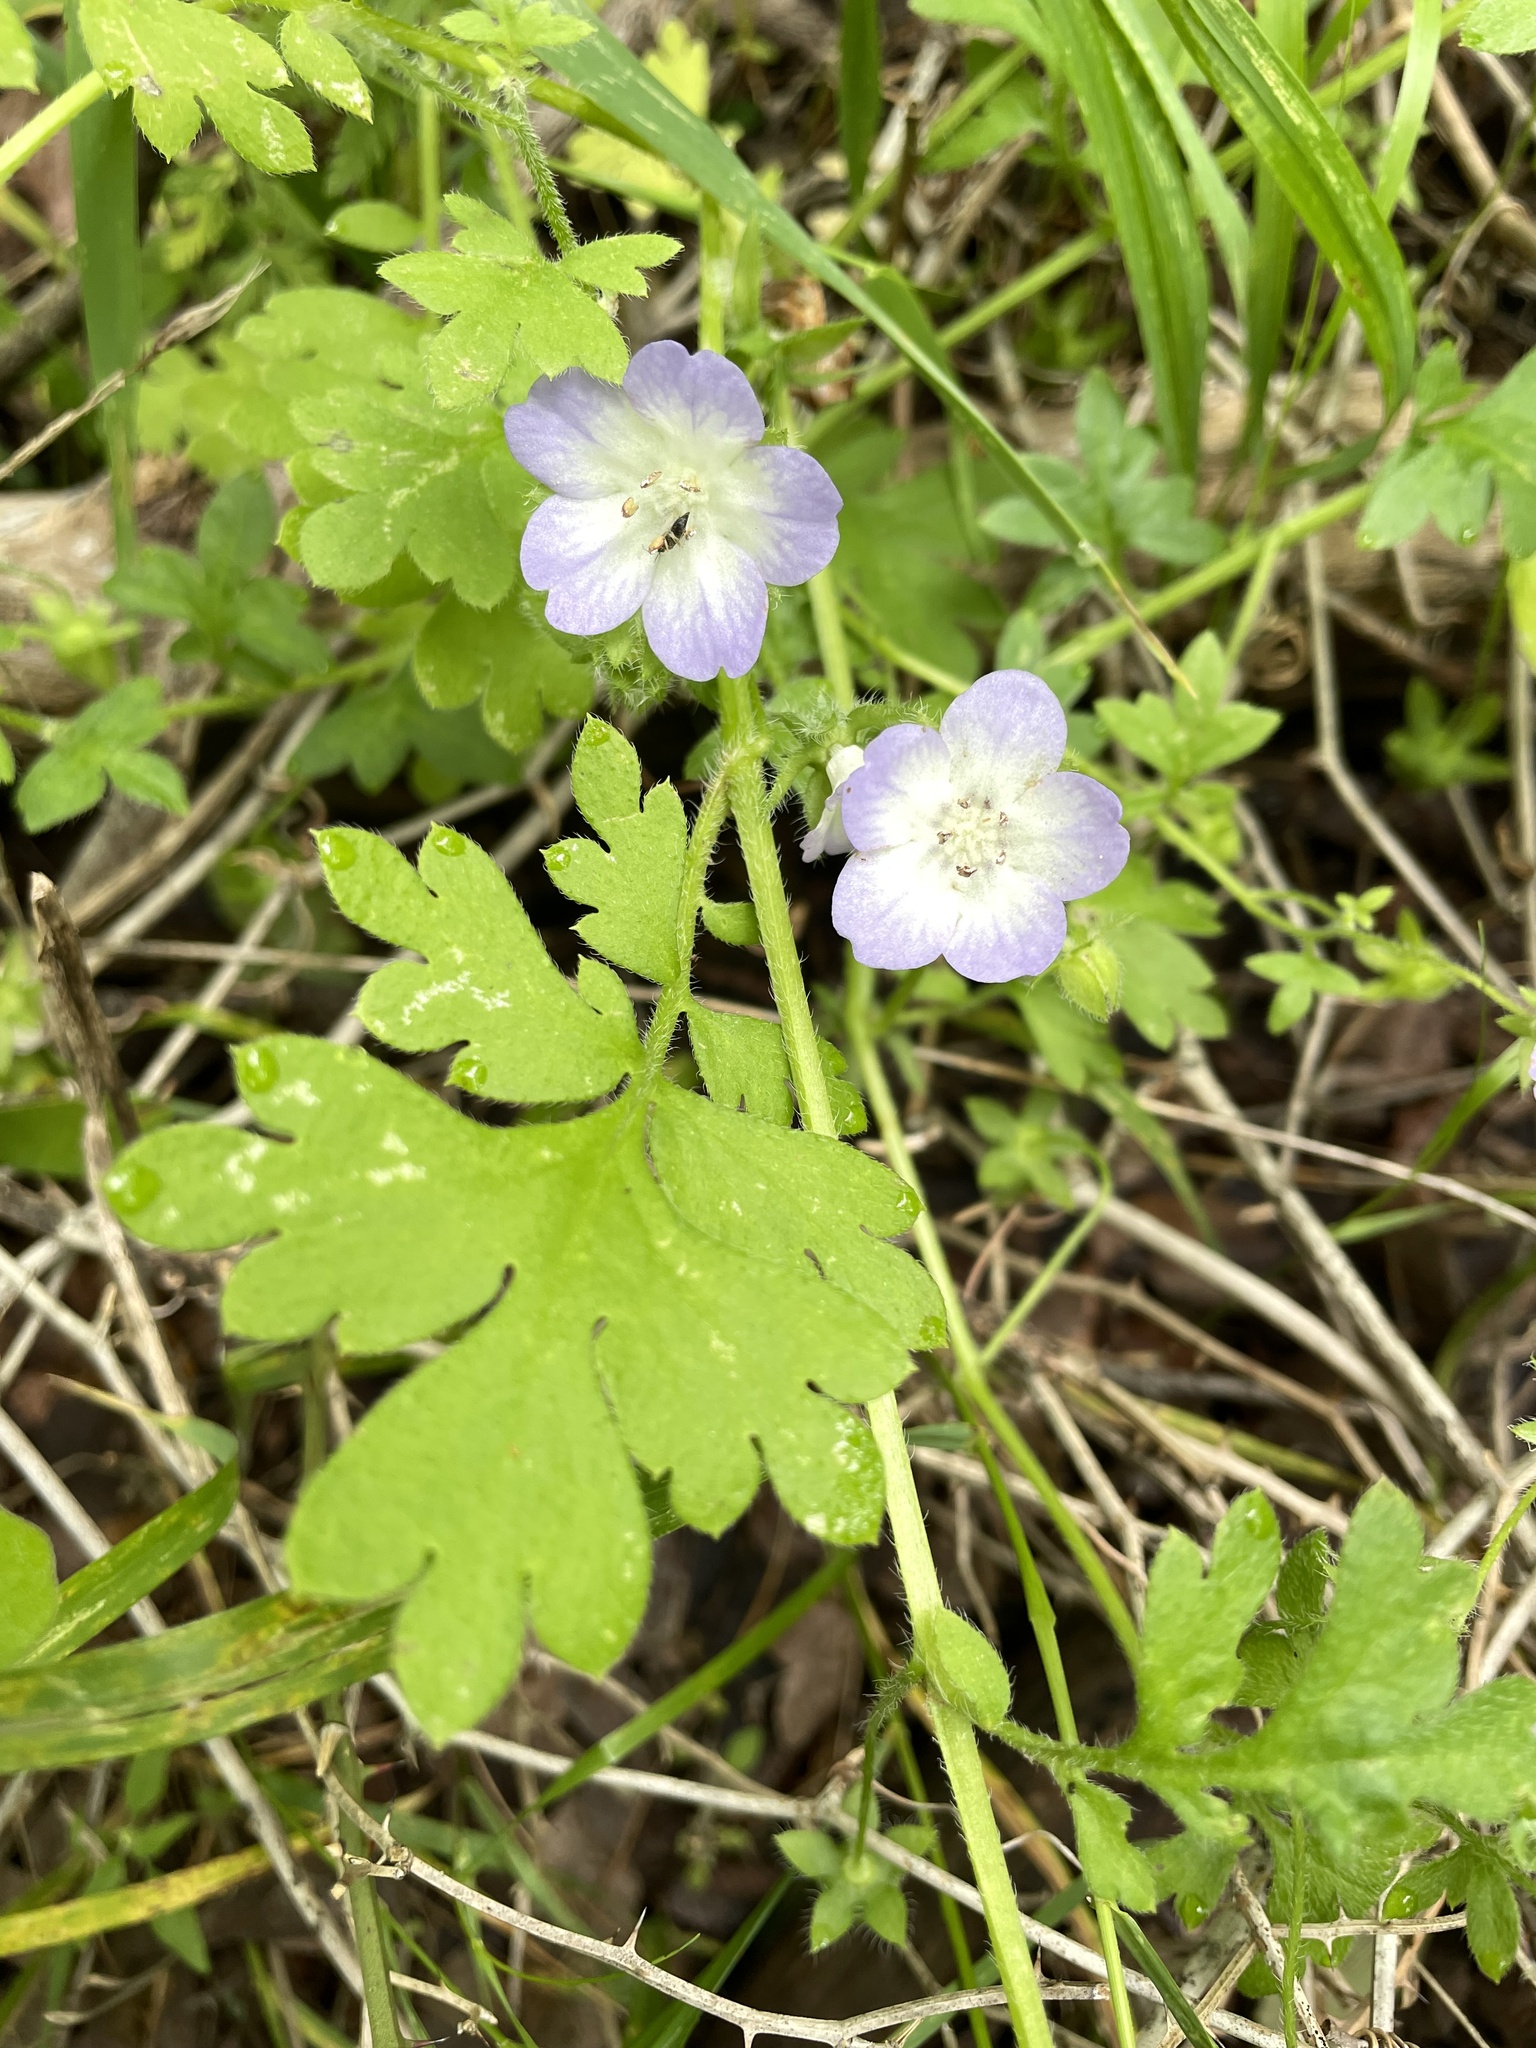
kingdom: Plantae
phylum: Tracheophyta
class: Magnoliopsida
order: Boraginales
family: Hydrophyllaceae
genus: Nemophila
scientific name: Nemophila phacelioides
